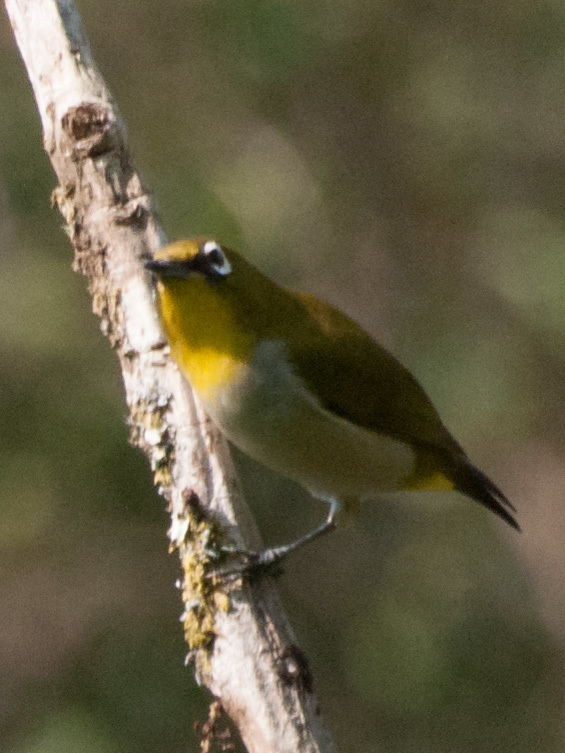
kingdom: Animalia
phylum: Chordata
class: Aves
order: Passeriformes
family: Zosteropidae
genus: Zosterops
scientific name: Zosterops maderaspatanus
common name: Madagascar white-eye
